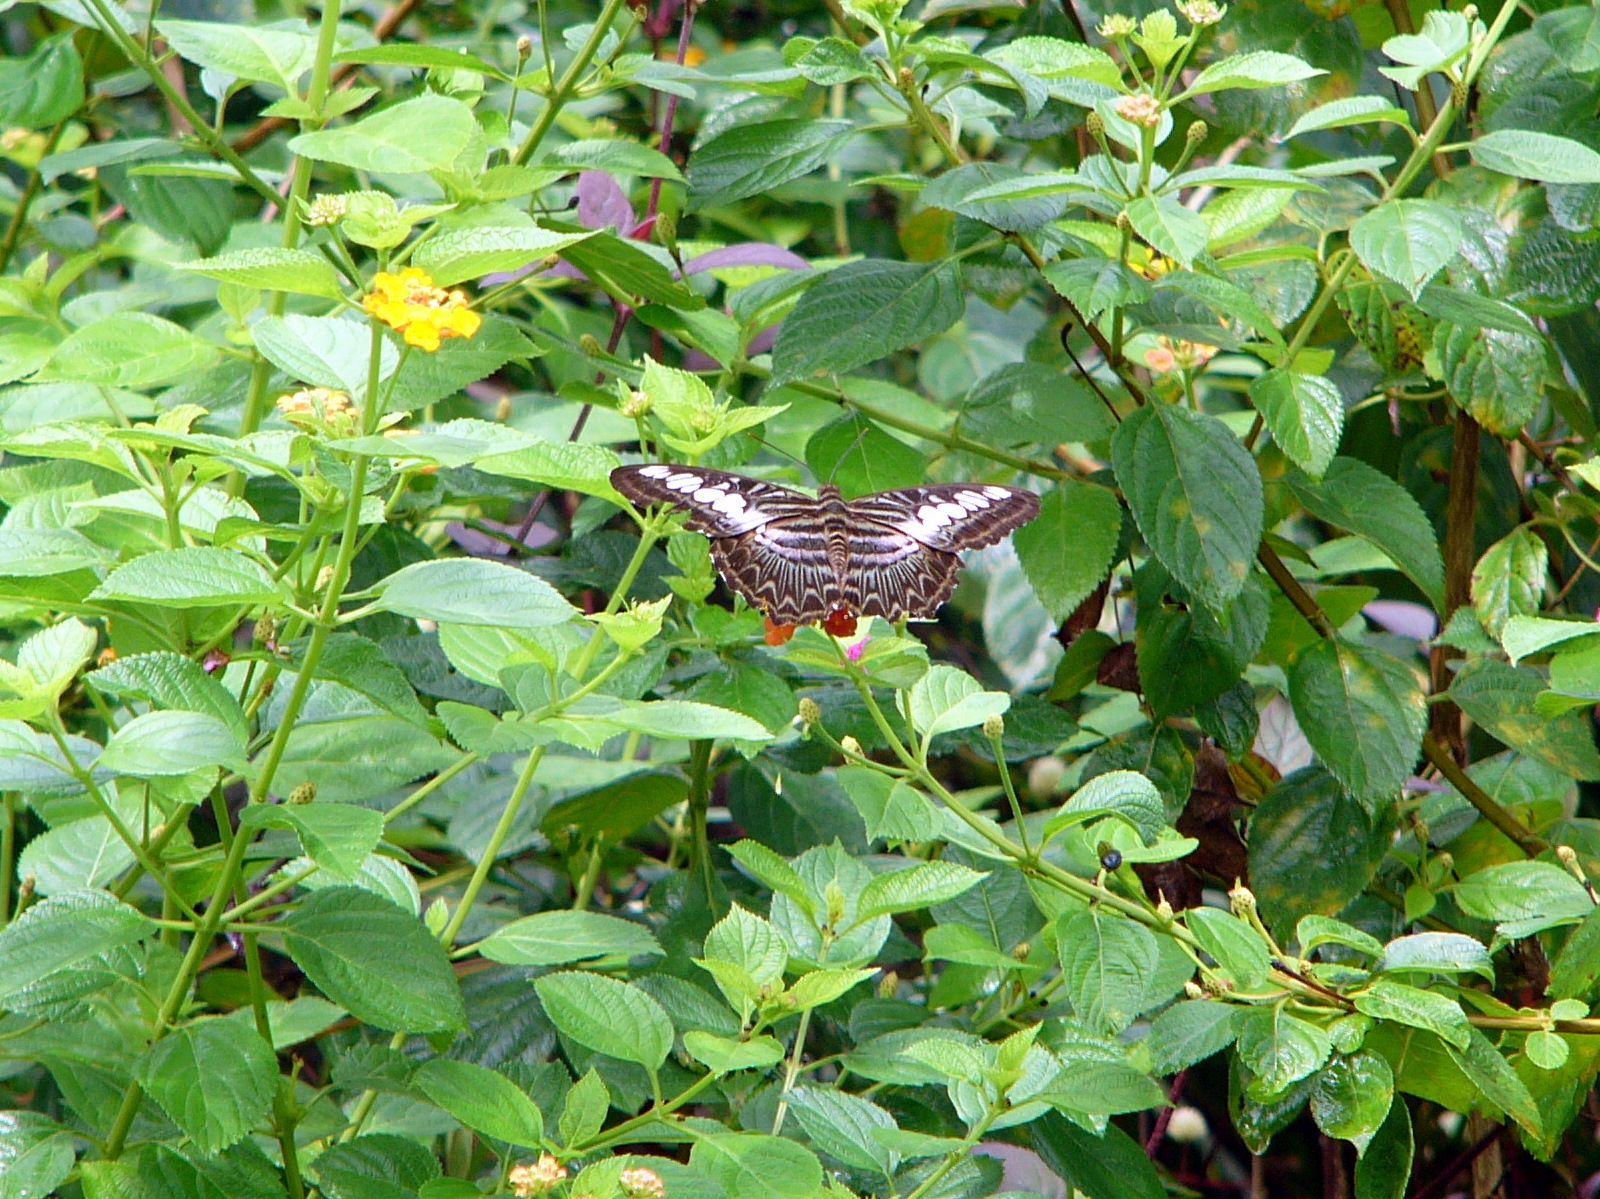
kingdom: Animalia
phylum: Arthropoda
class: Insecta
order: Lepidoptera
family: Nymphalidae
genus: Kallima
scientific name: Kallima sylvia
